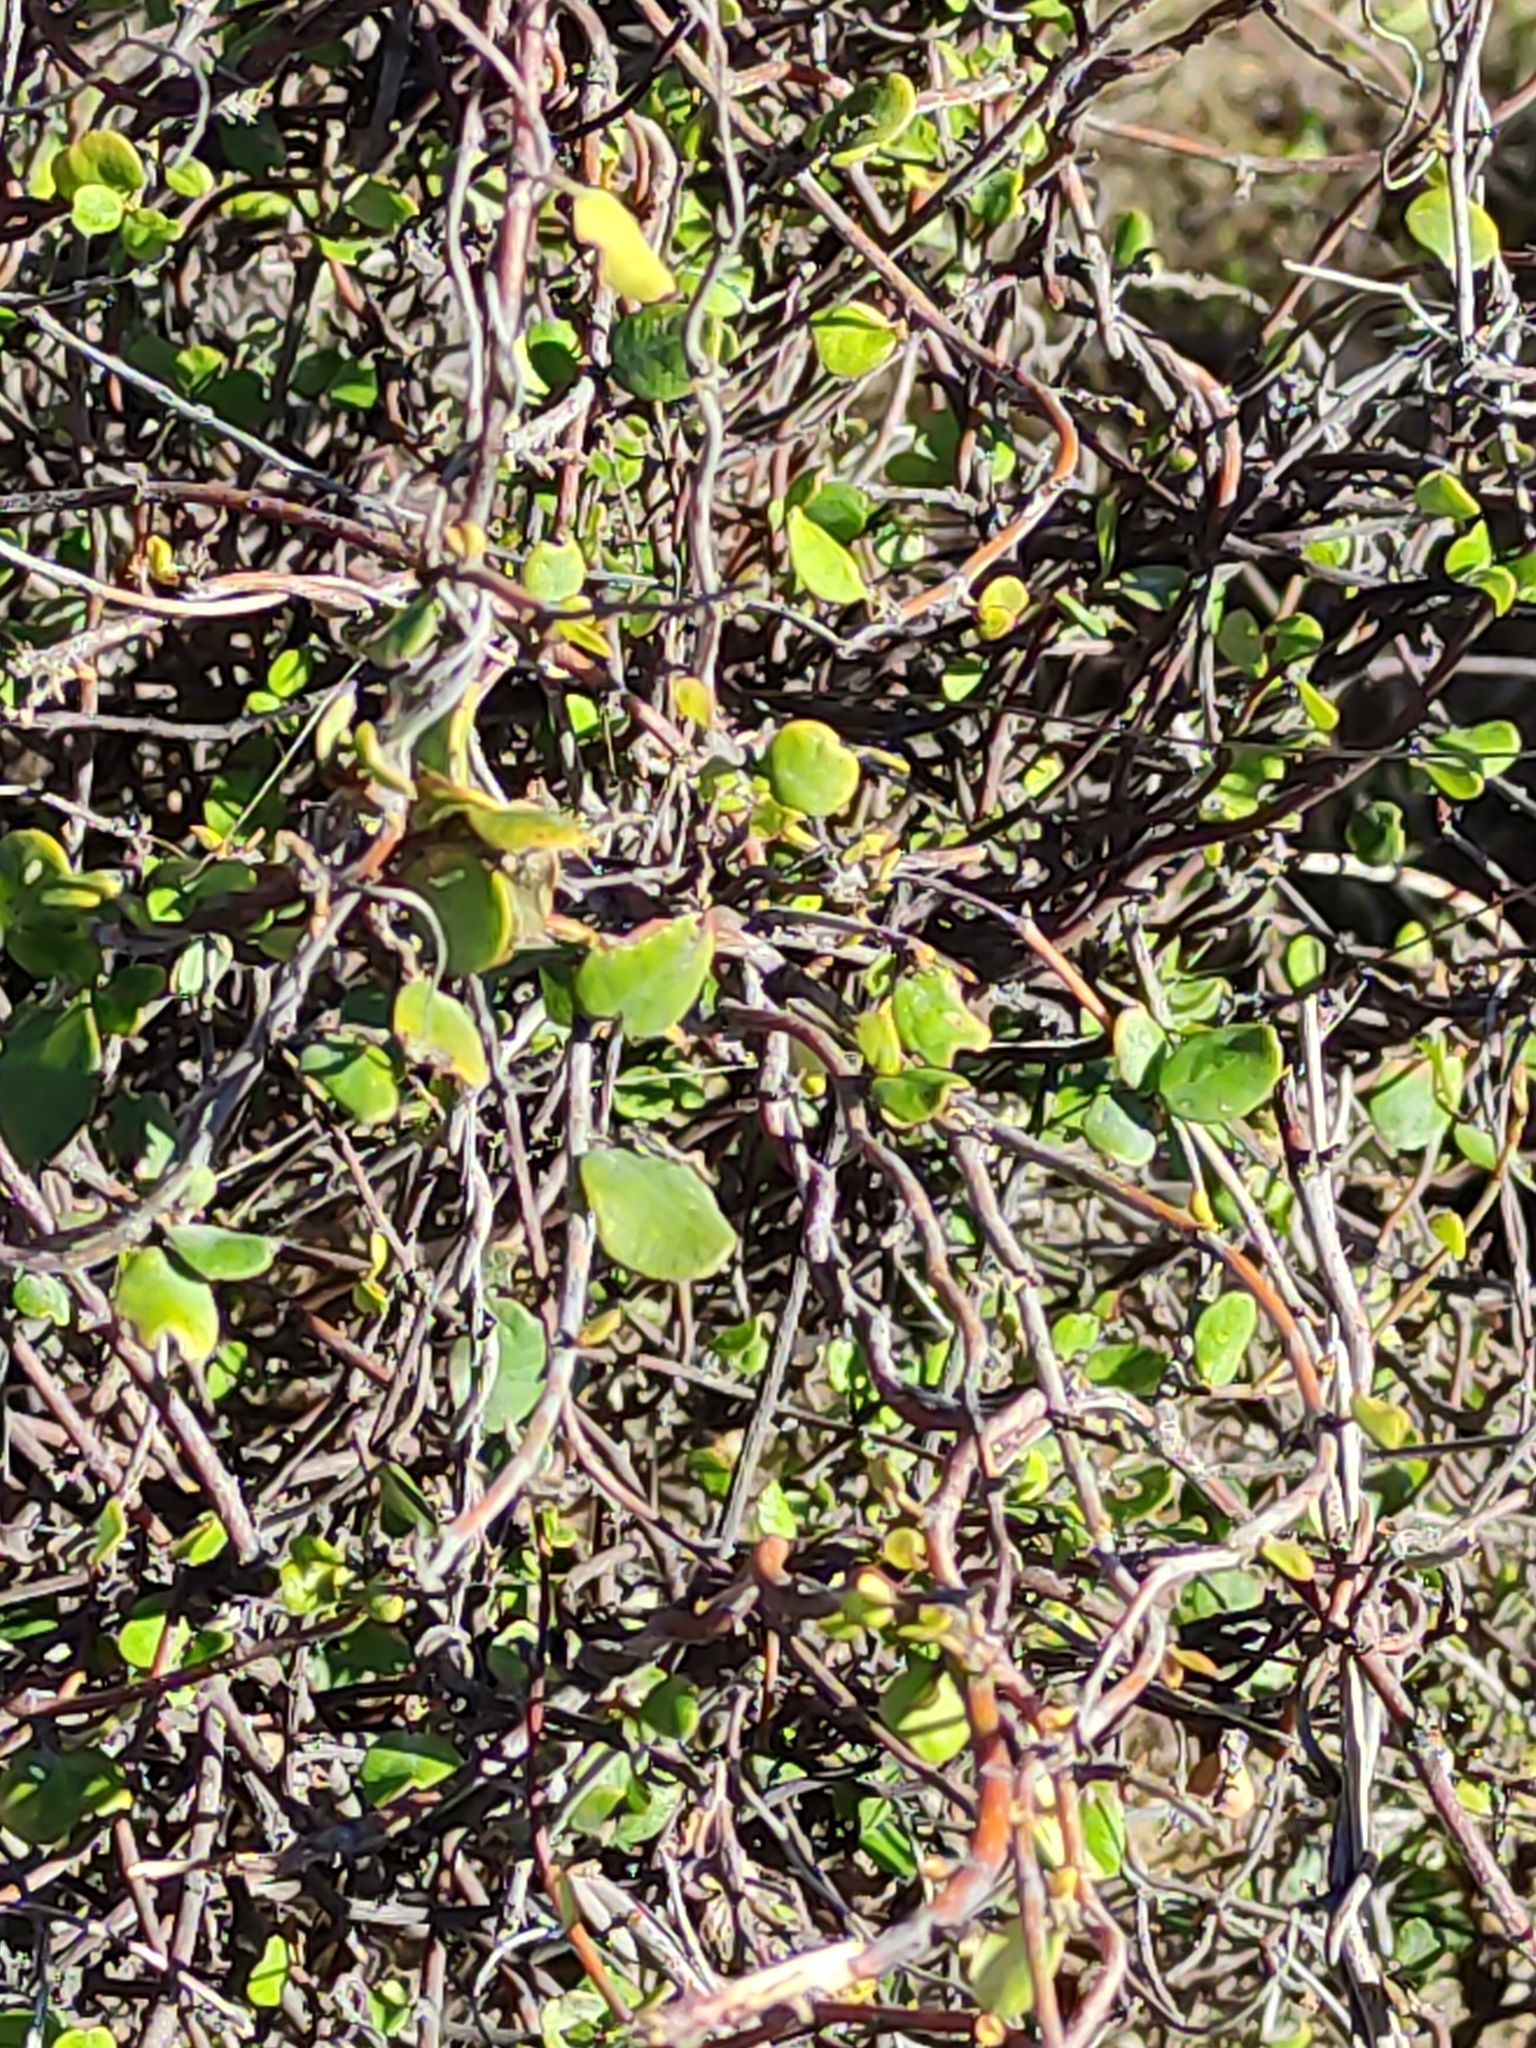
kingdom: Plantae
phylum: Tracheophyta
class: Magnoliopsida
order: Caryophyllales
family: Polygonaceae
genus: Muehlenbeckia
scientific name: Muehlenbeckia complexa
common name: Wireplant
